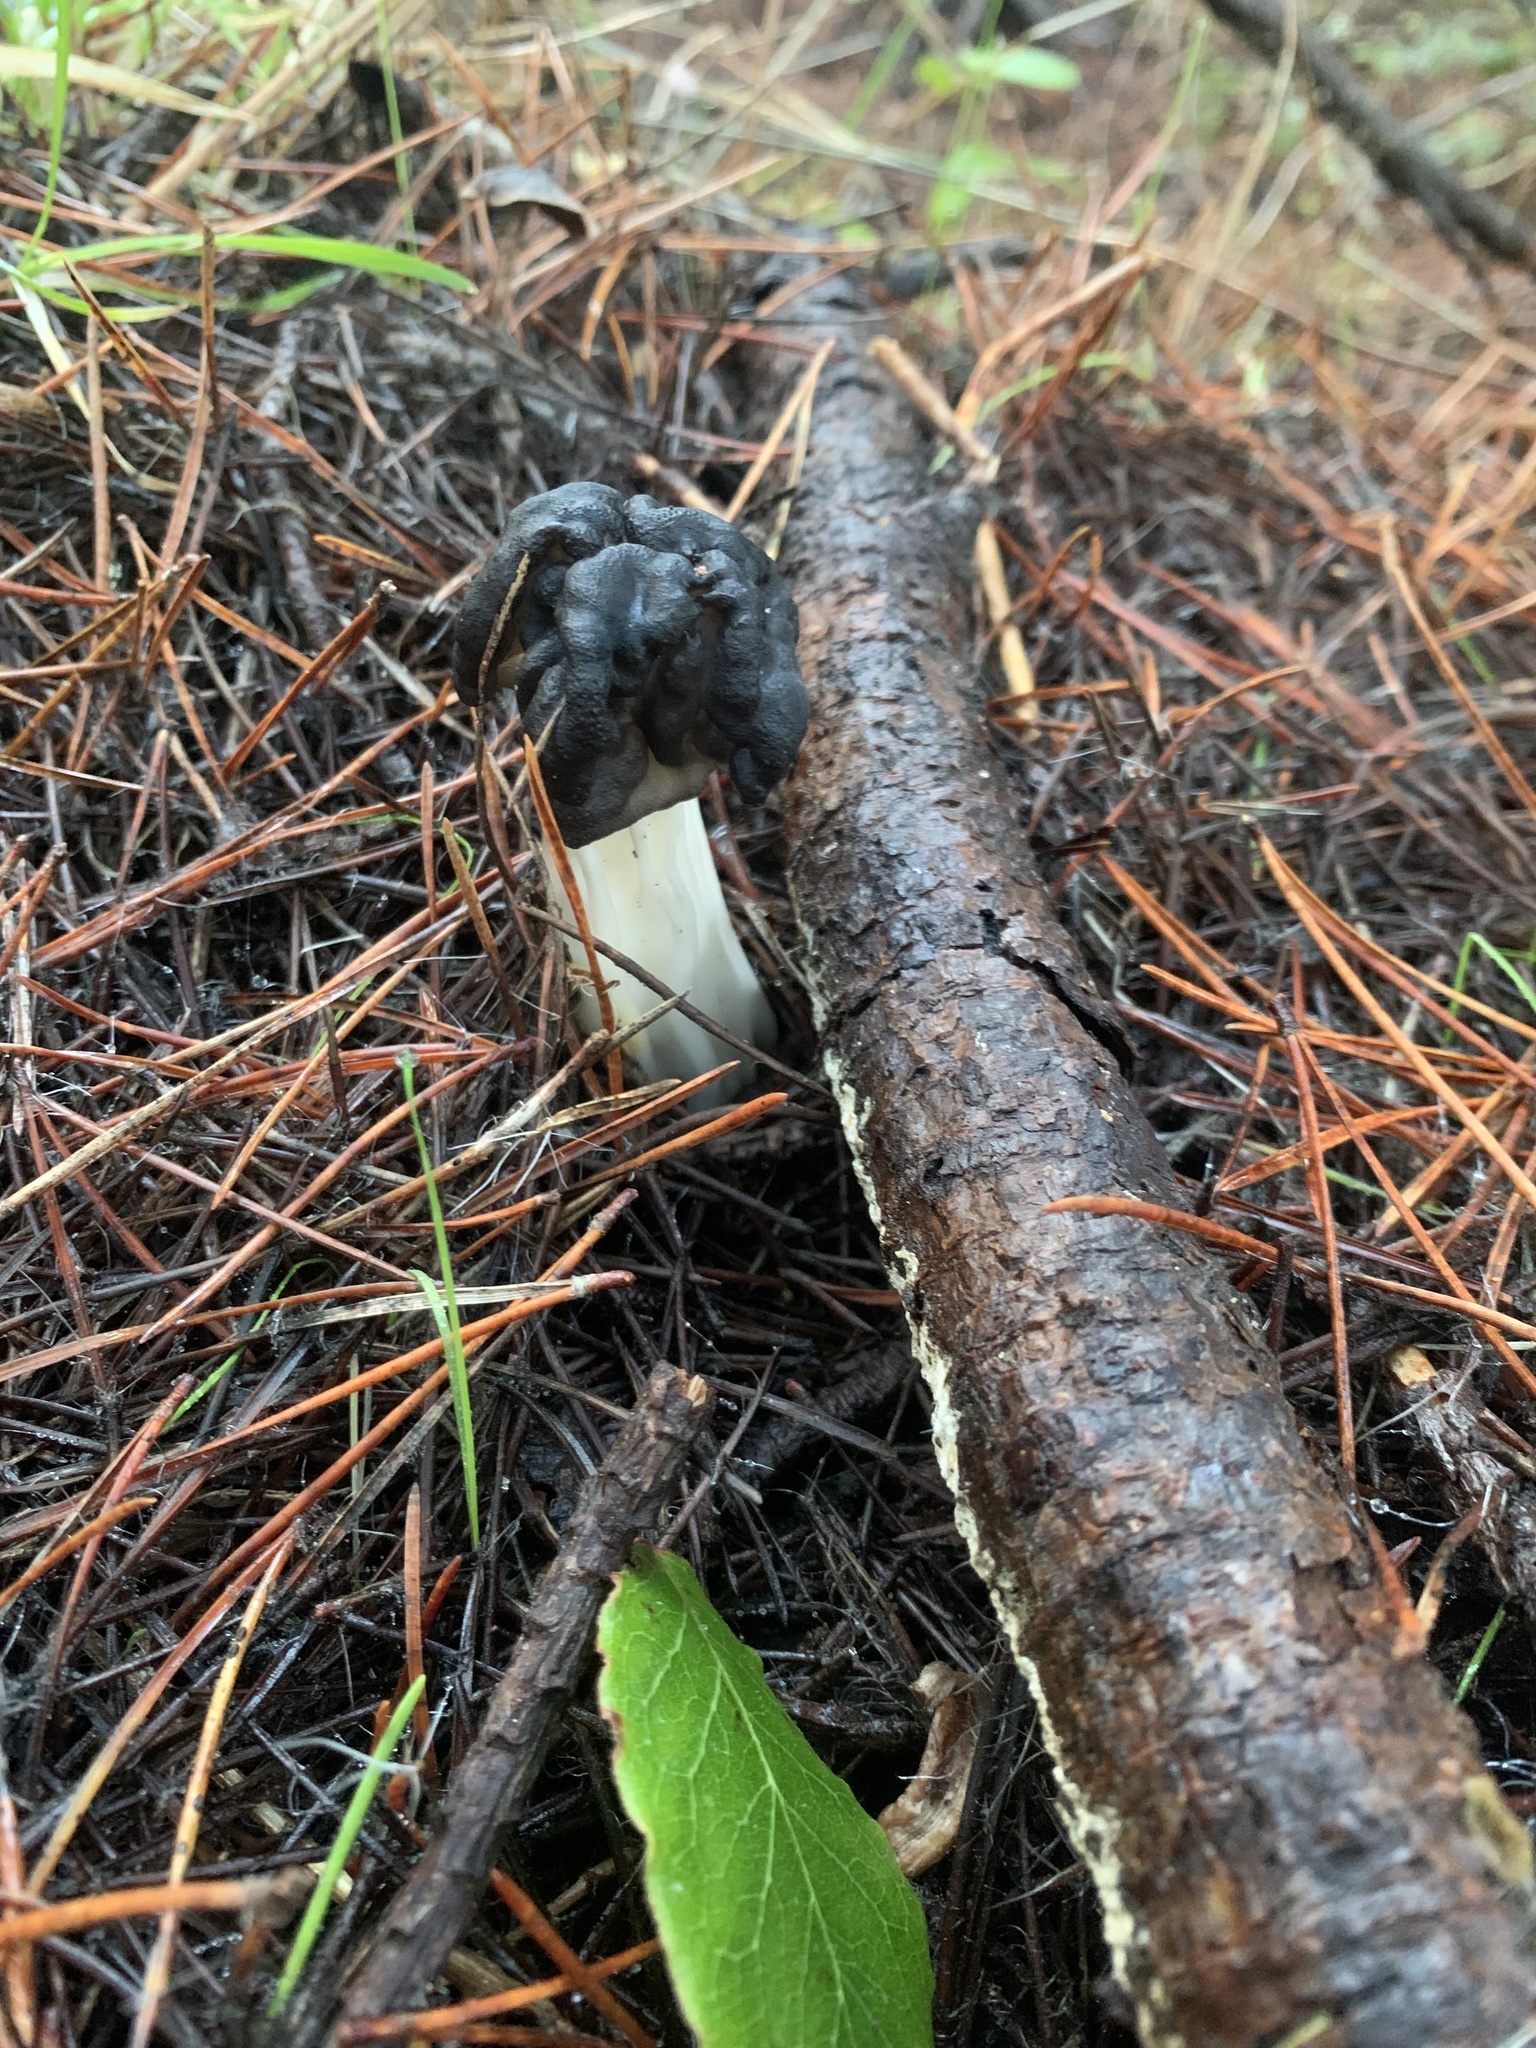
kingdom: Fungi
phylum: Ascomycota
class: Pezizomycetes
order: Pezizales
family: Helvellaceae
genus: Helvella
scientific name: Helvella vespertina
